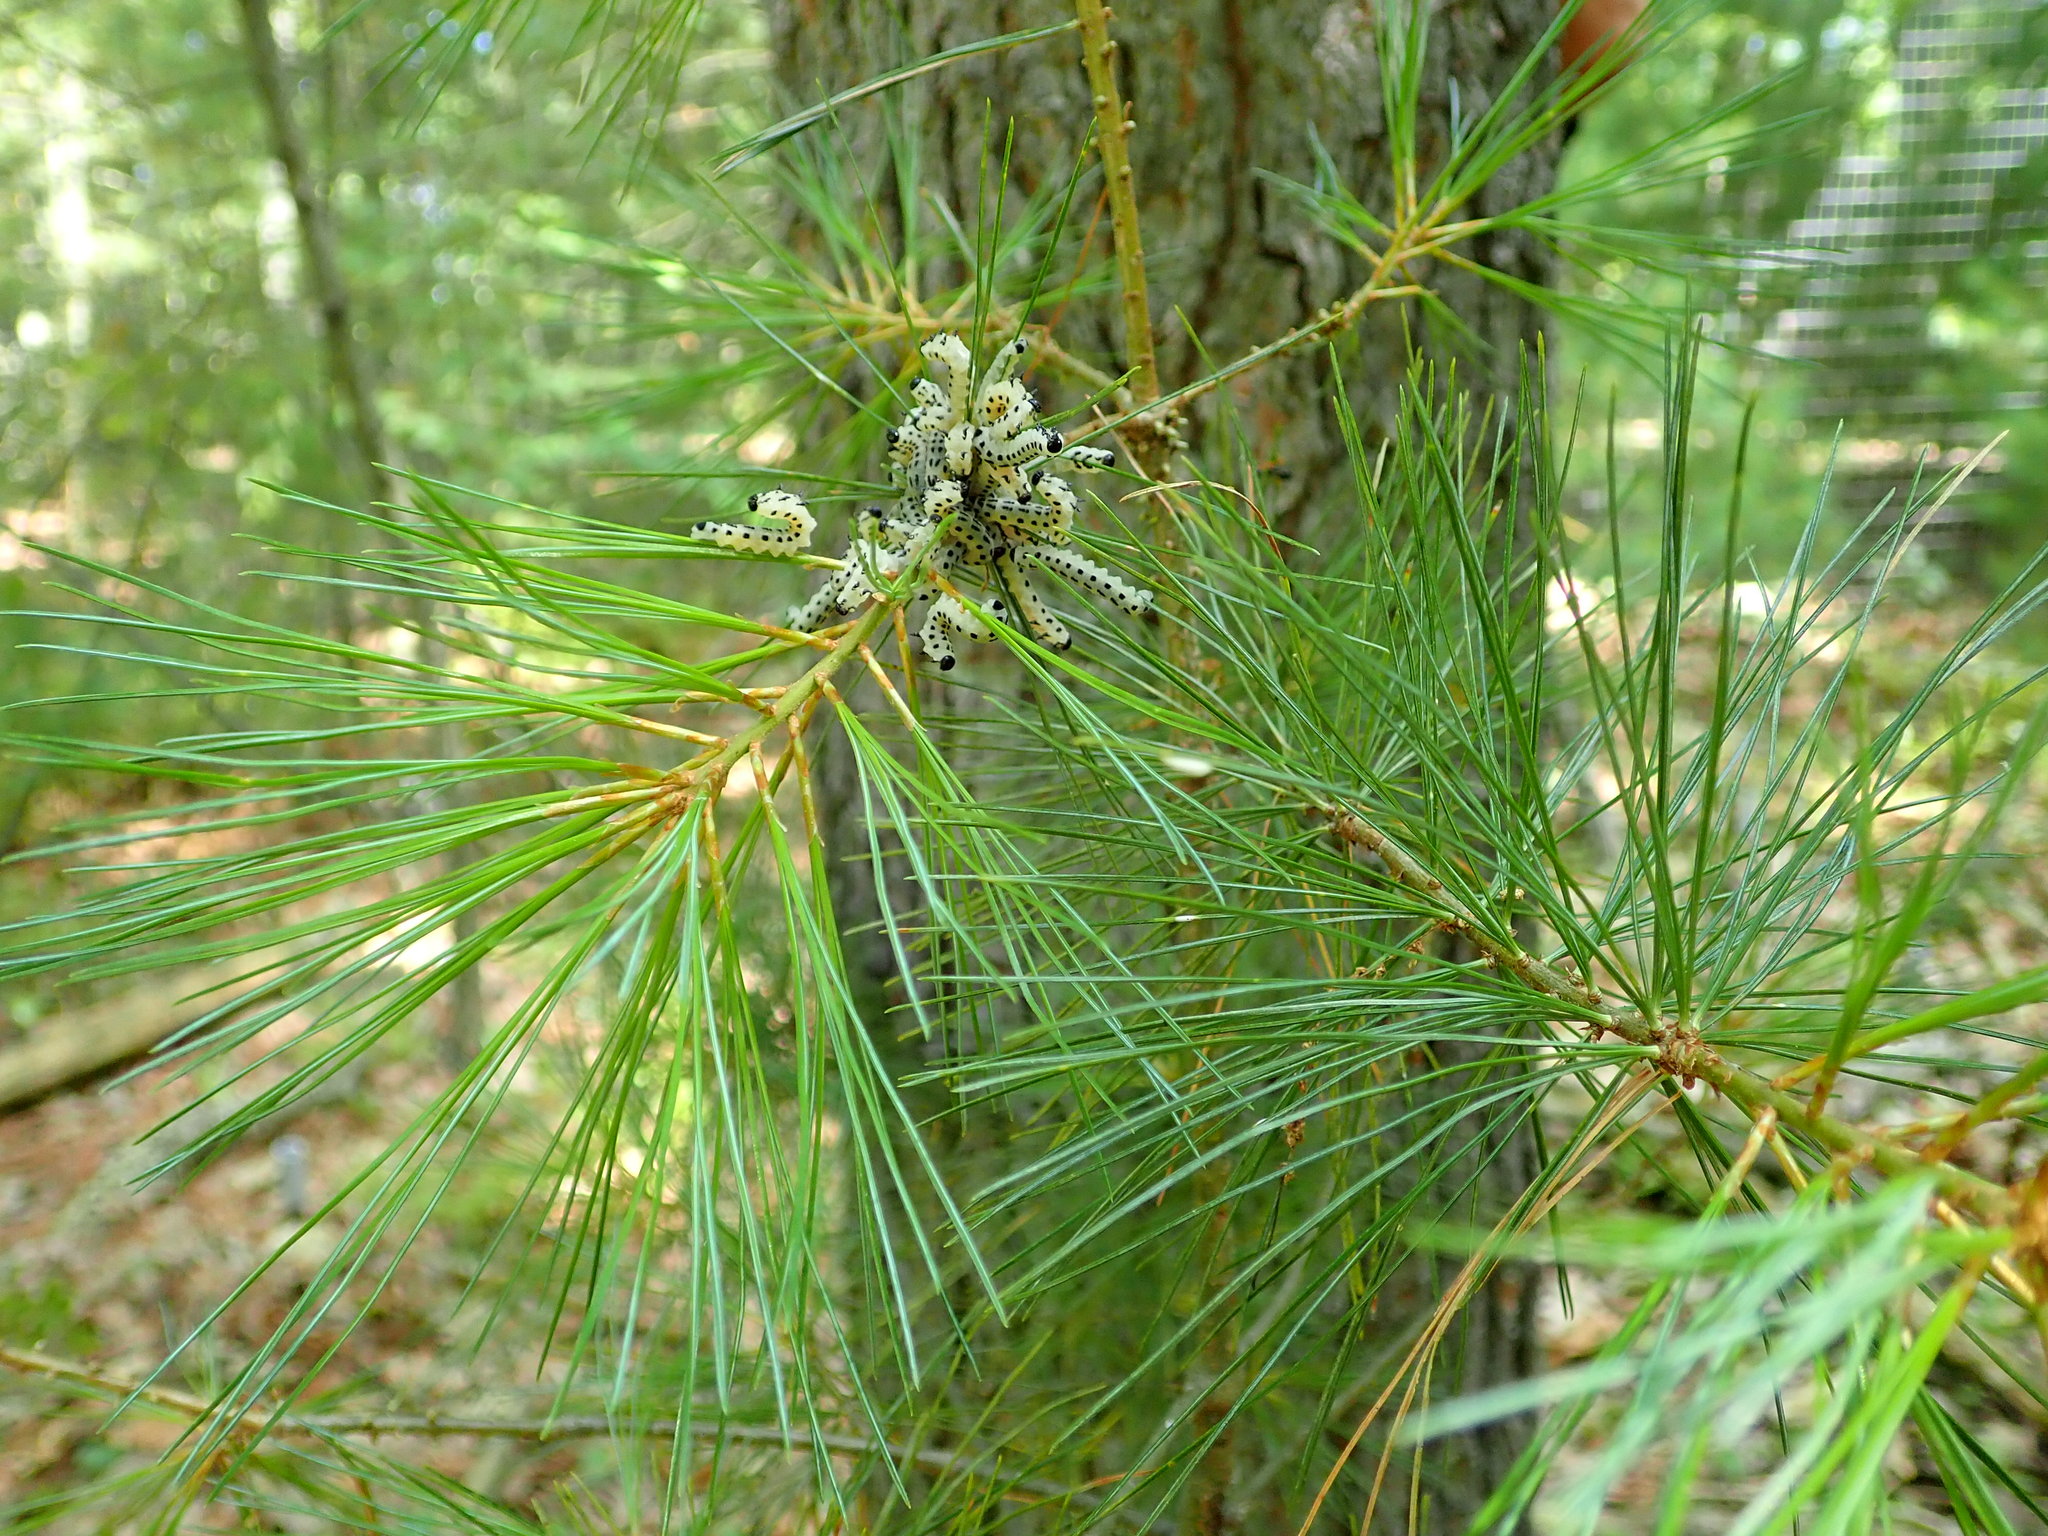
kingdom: Animalia
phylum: Arthropoda
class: Insecta
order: Hymenoptera
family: Diprionidae
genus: Neodiprion
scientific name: Neodiprion pinetum
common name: White pine sawfly
